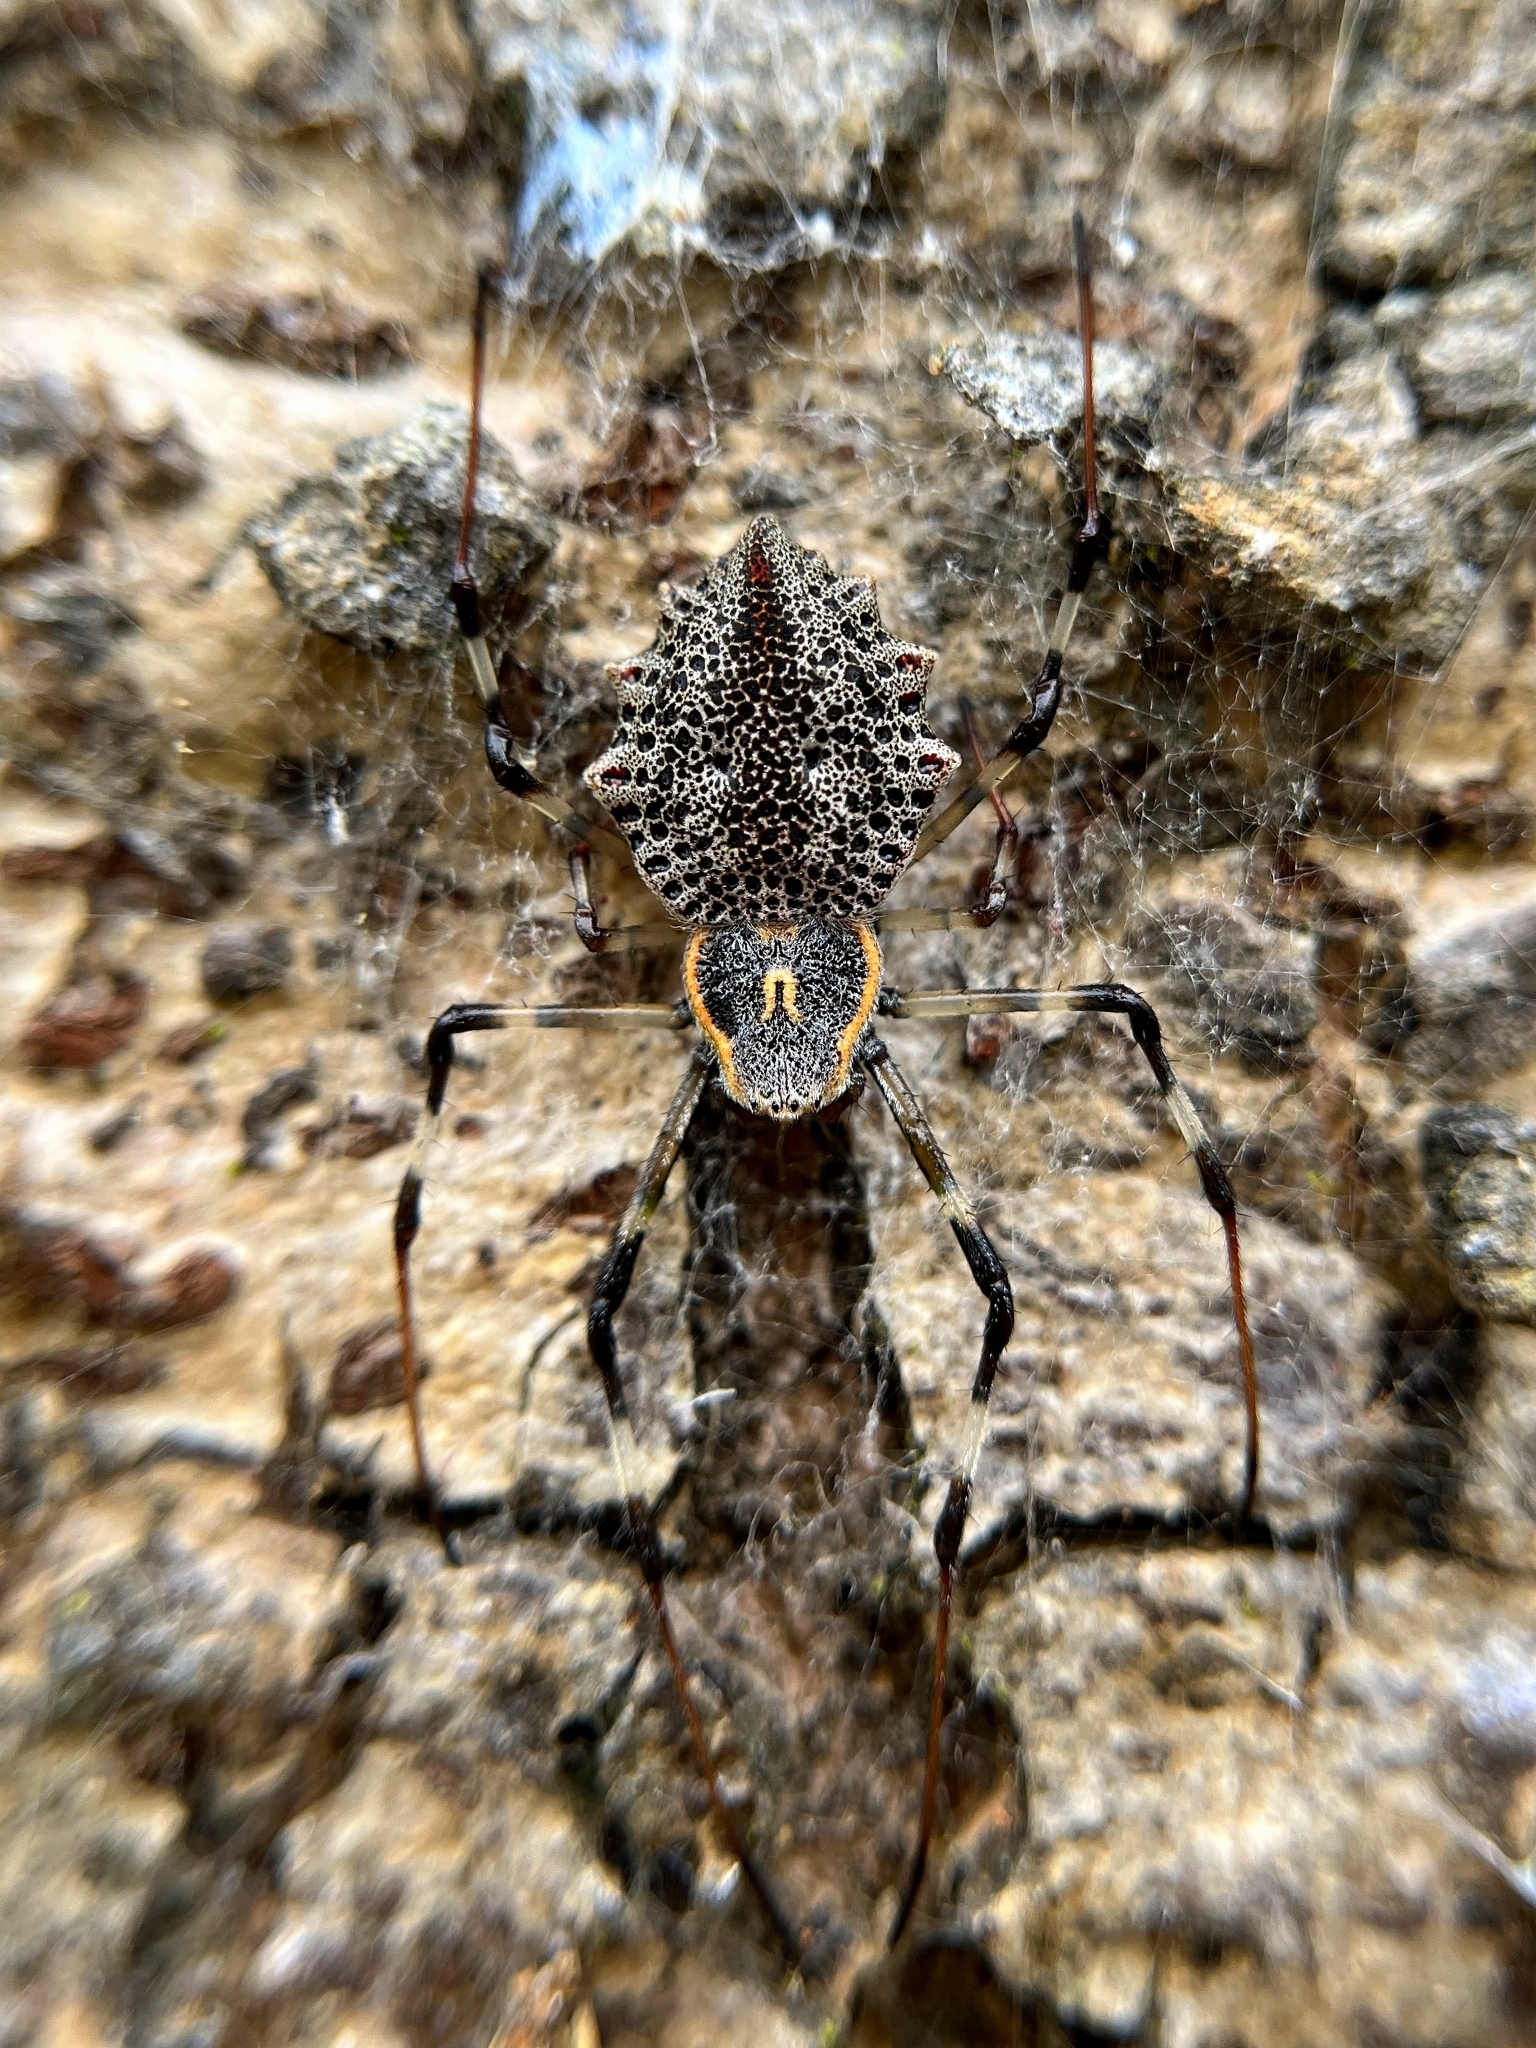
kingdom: Animalia
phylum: Arthropoda
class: Arachnida
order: Araneae
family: Araneidae
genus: Herennia
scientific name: Herennia multipuncta
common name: Spotted coin spider
